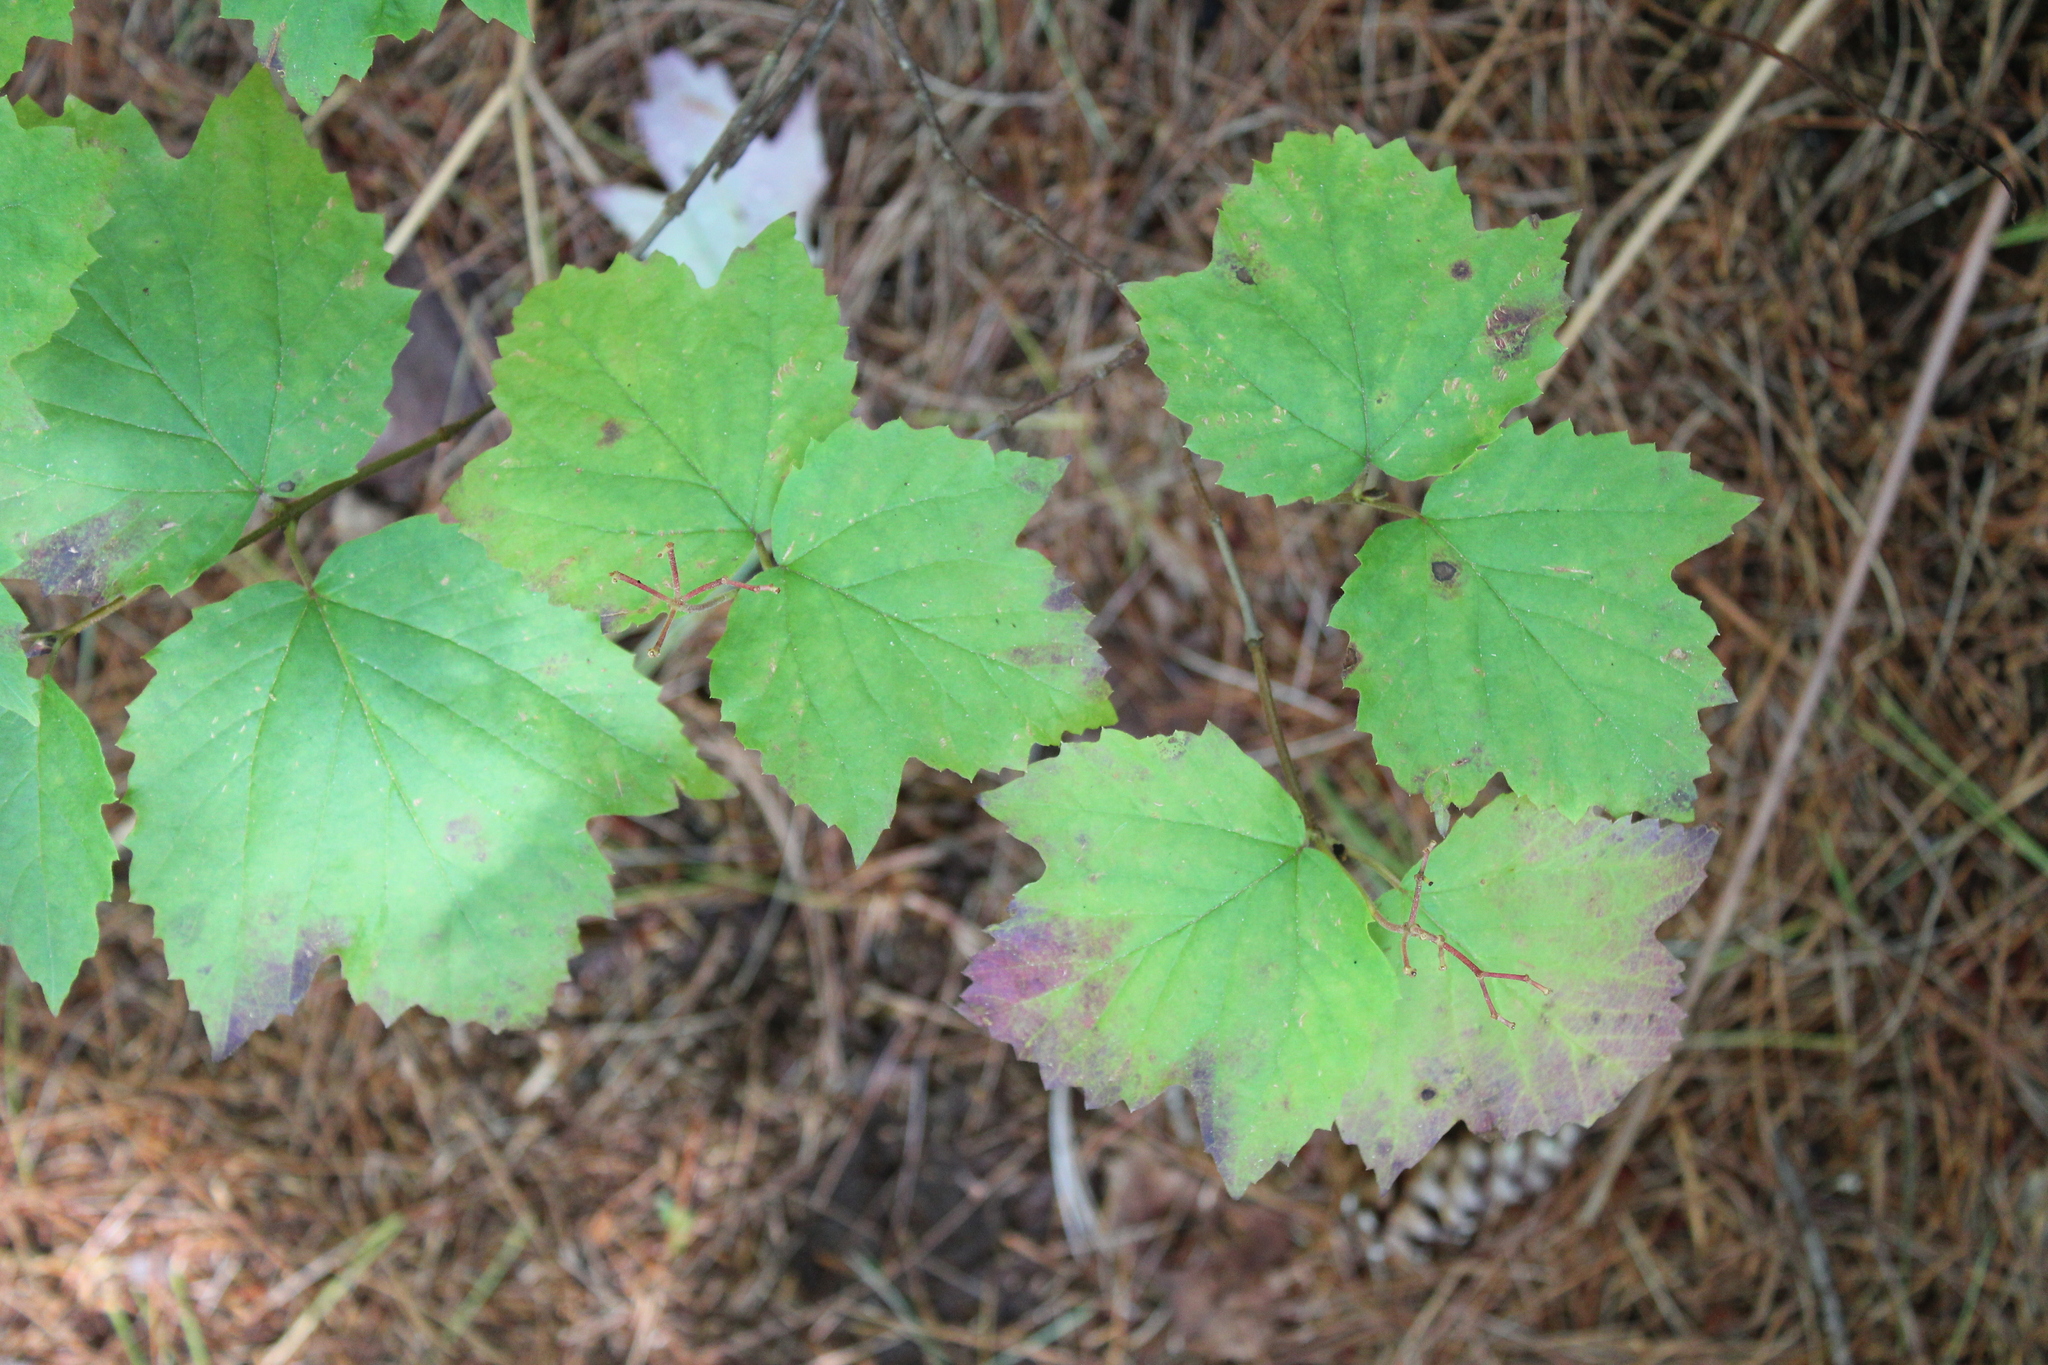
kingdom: Plantae
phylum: Tracheophyta
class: Magnoliopsida
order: Dipsacales
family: Viburnaceae
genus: Viburnum
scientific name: Viburnum acerifolium
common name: Dockmackie
